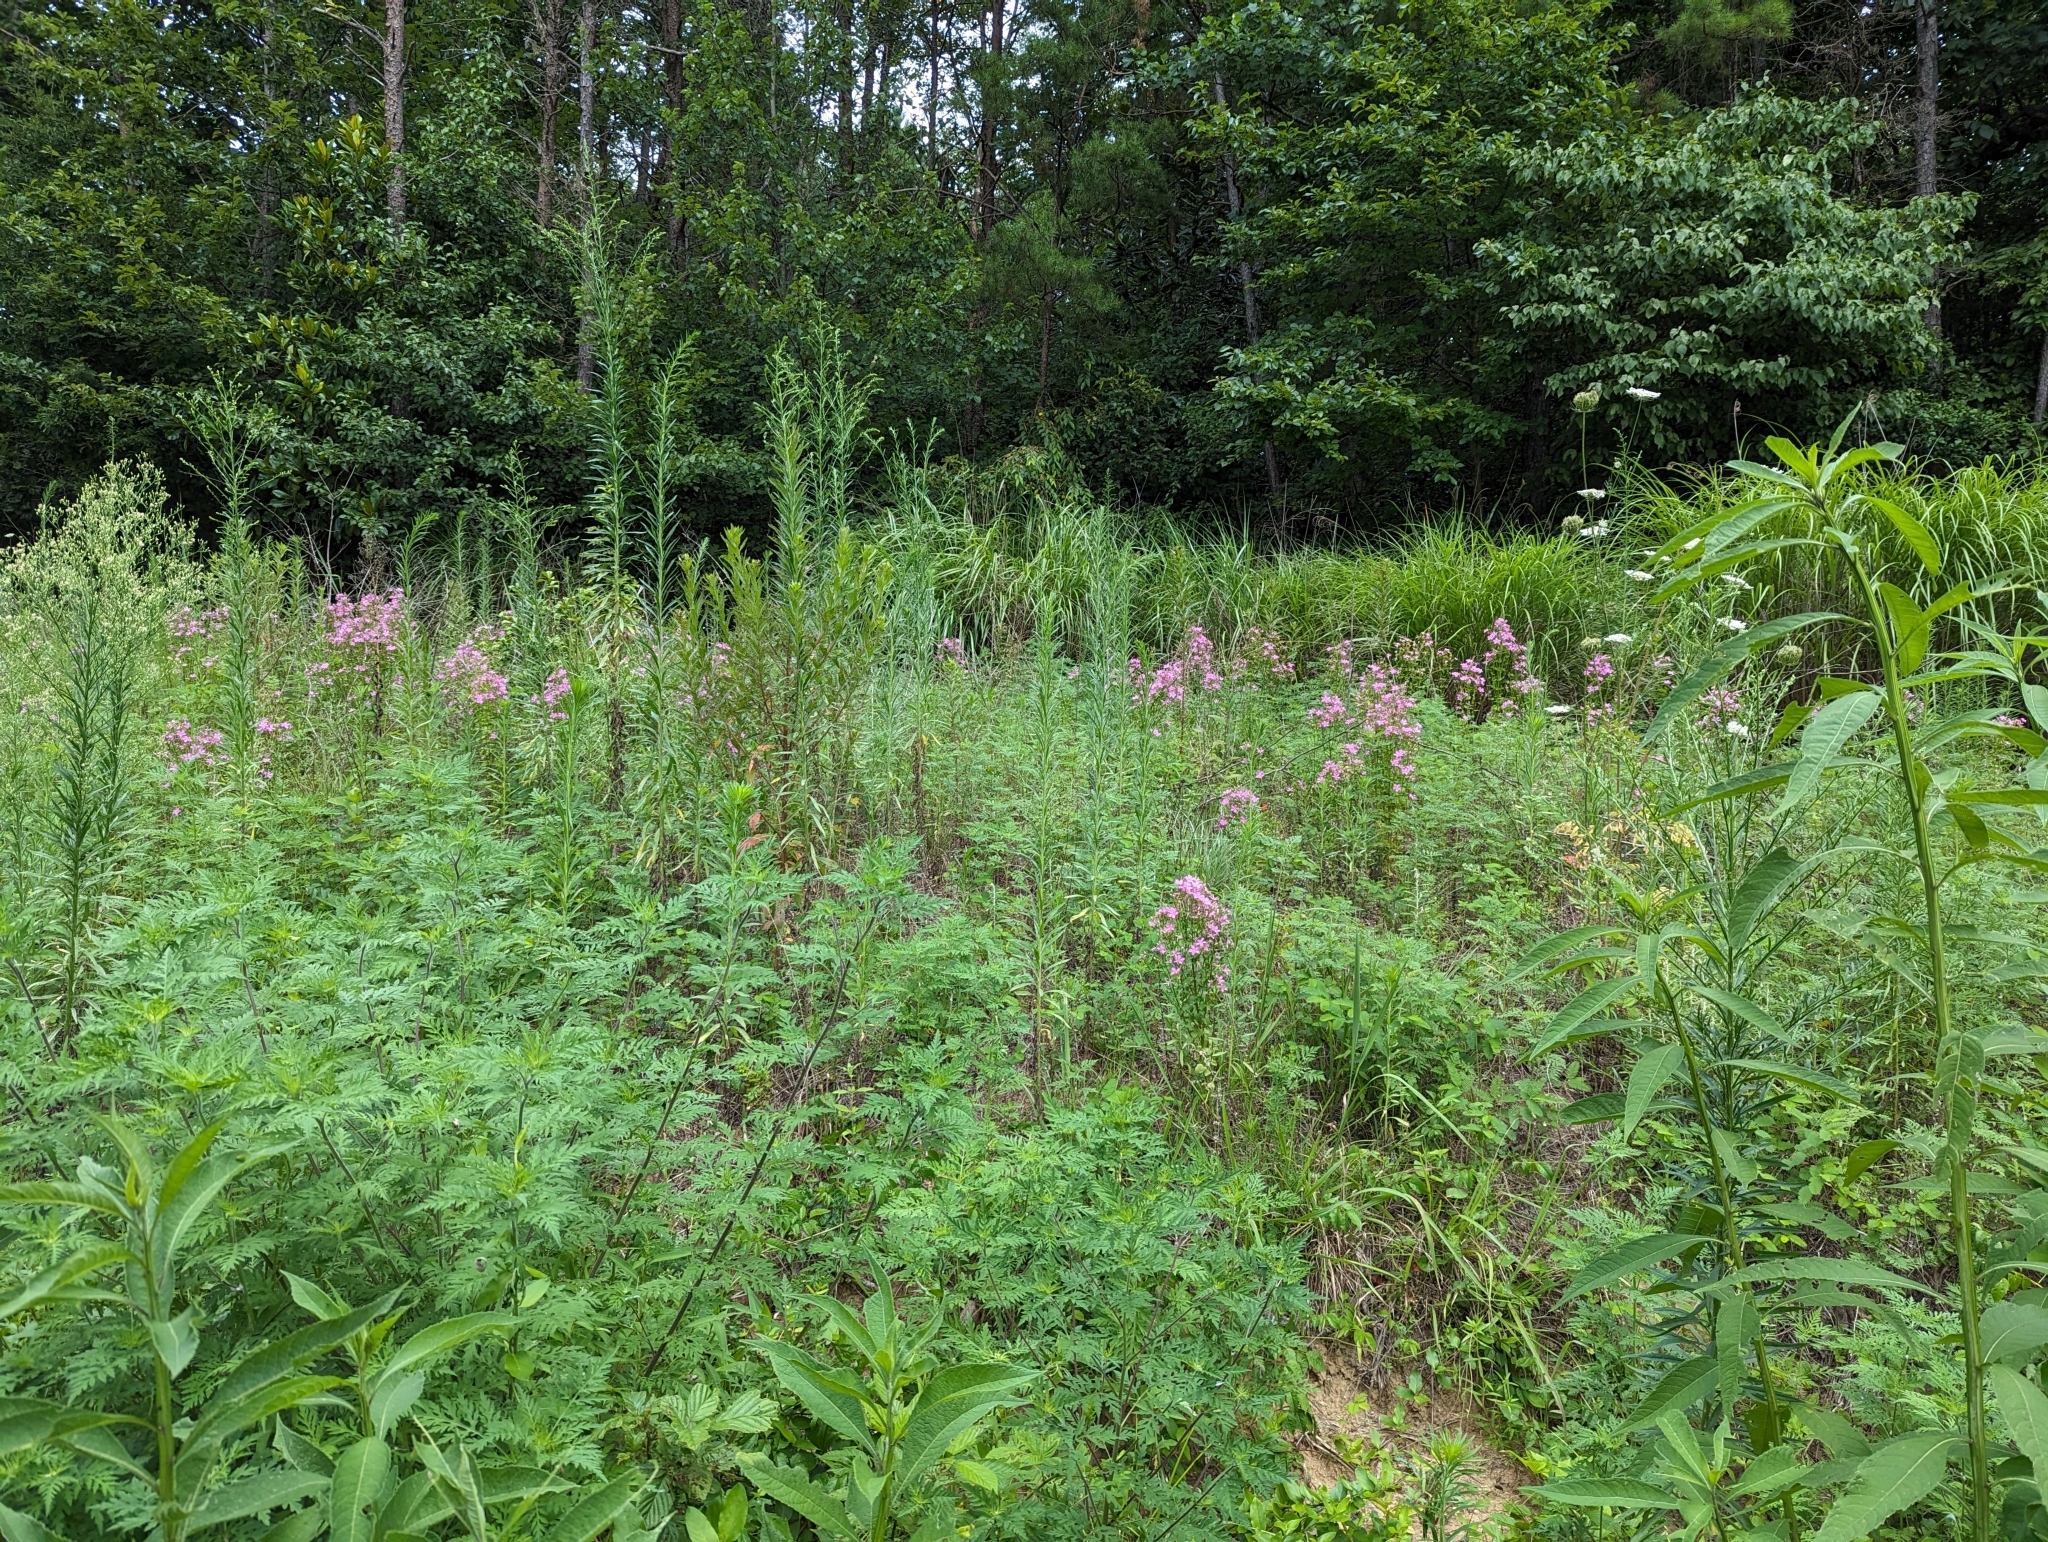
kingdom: Plantae
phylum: Tracheophyta
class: Magnoliopsida
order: Gentianales
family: Gentianaceae
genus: Sabatia
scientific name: Sabatia angularis
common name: Rose-pink
